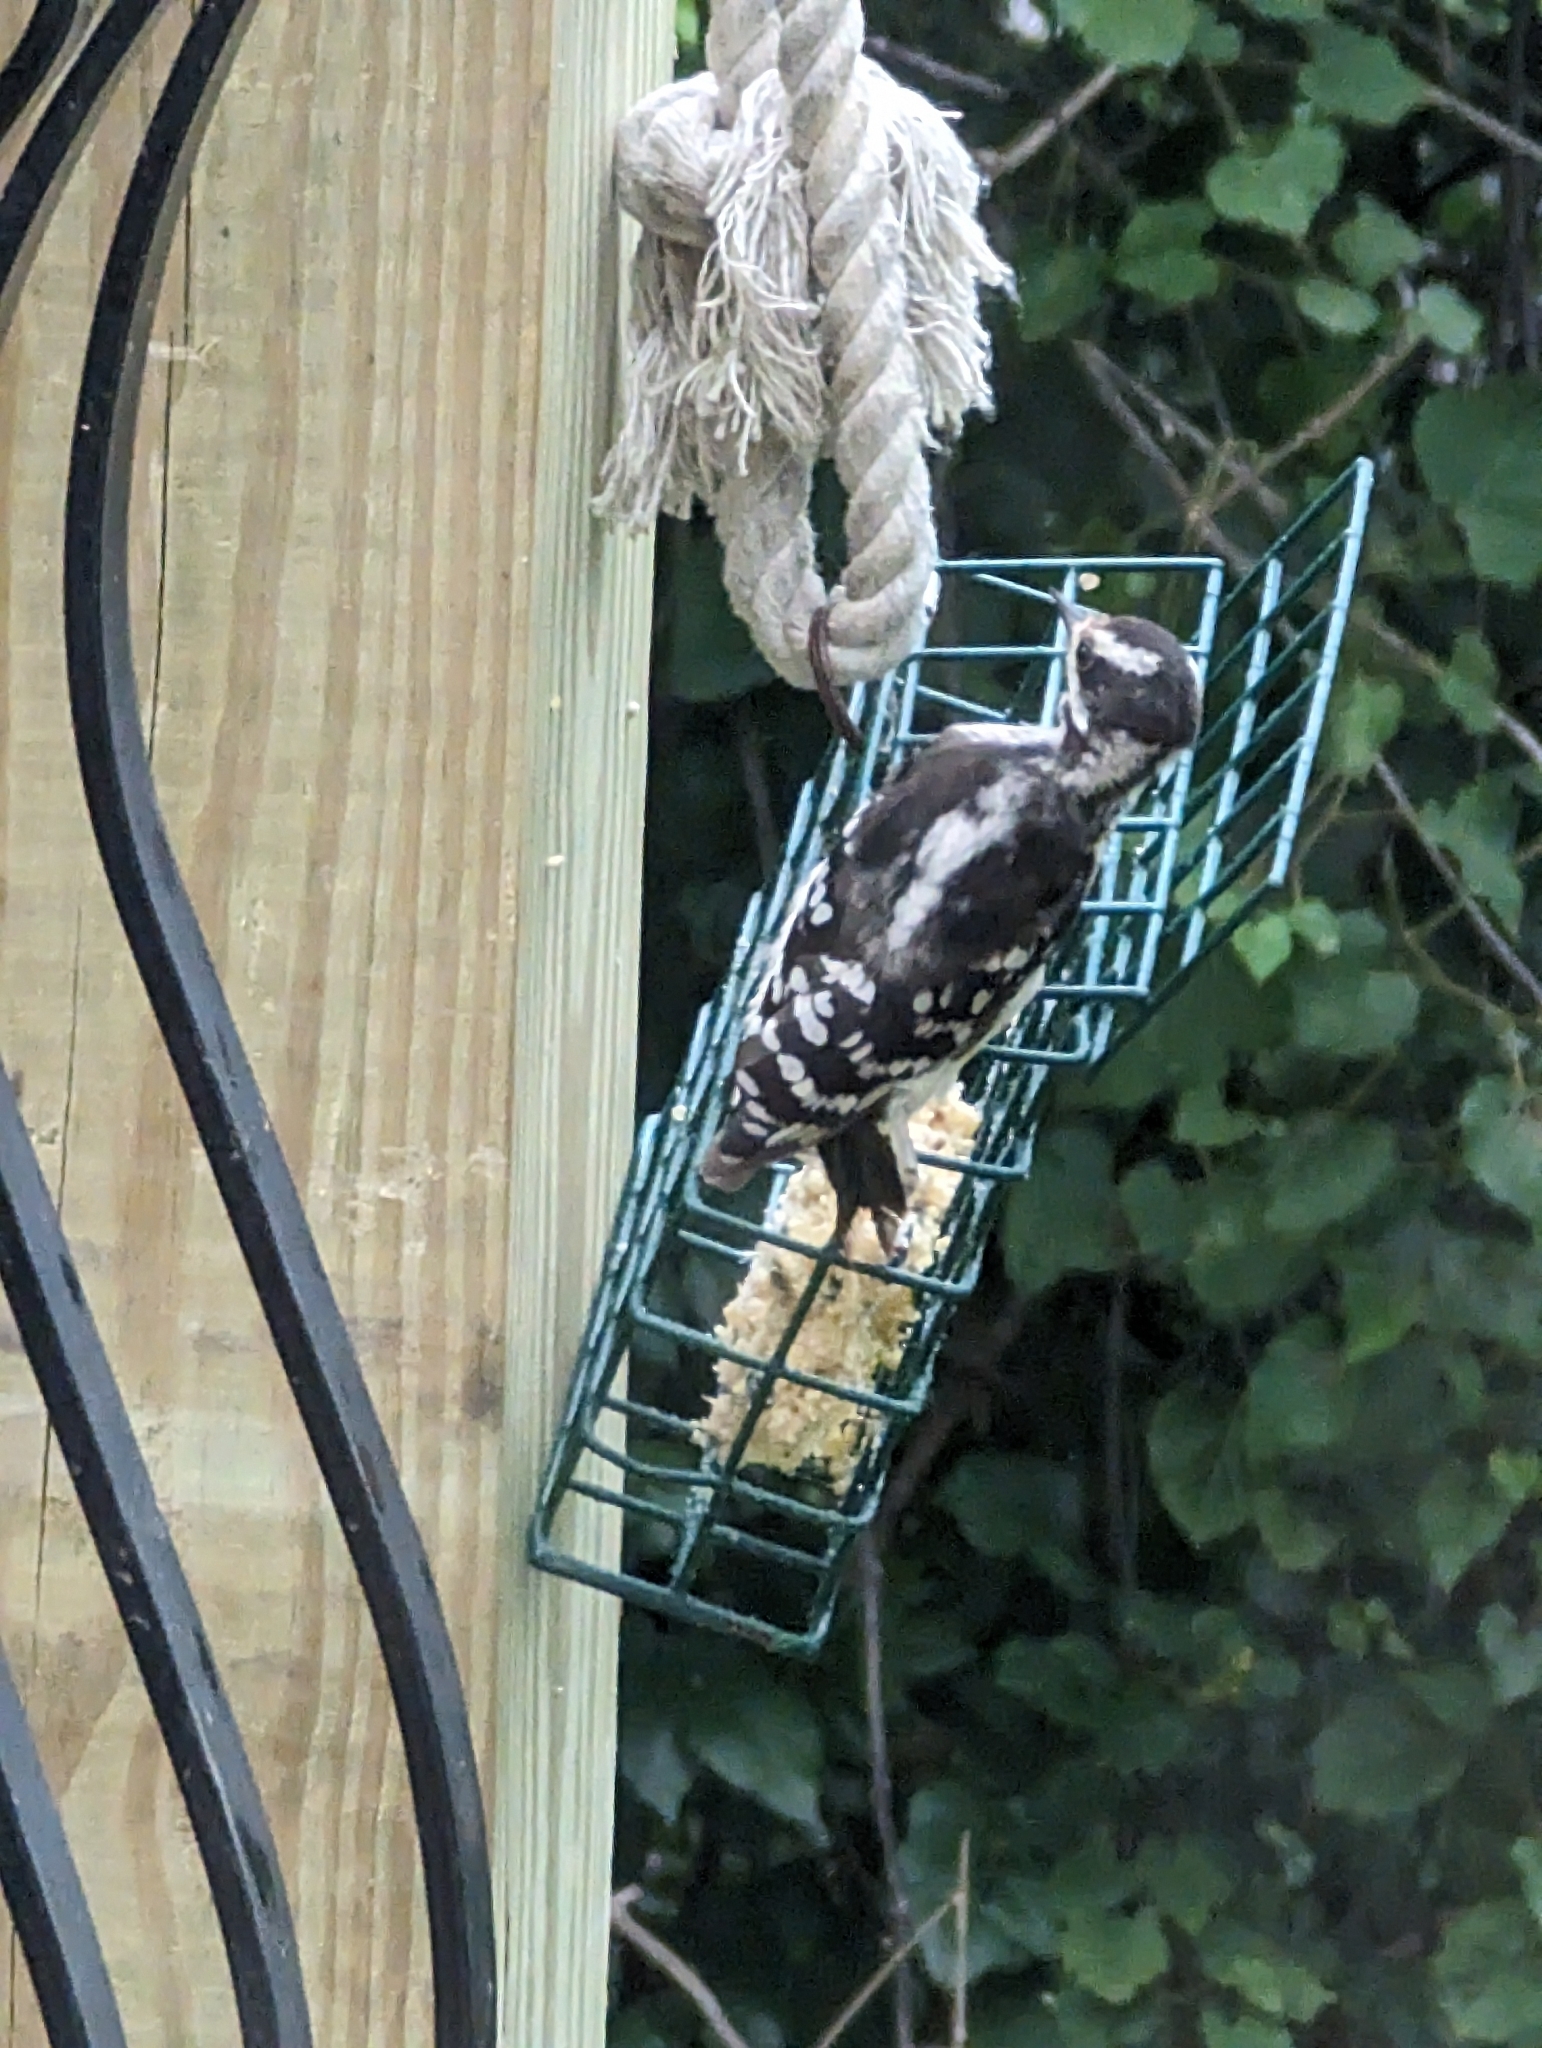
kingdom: Animalia
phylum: Chordata
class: Aves
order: Piciformes
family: Picidae
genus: Dryobates
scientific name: Dryobates pubescens
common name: Downy woodpecker
